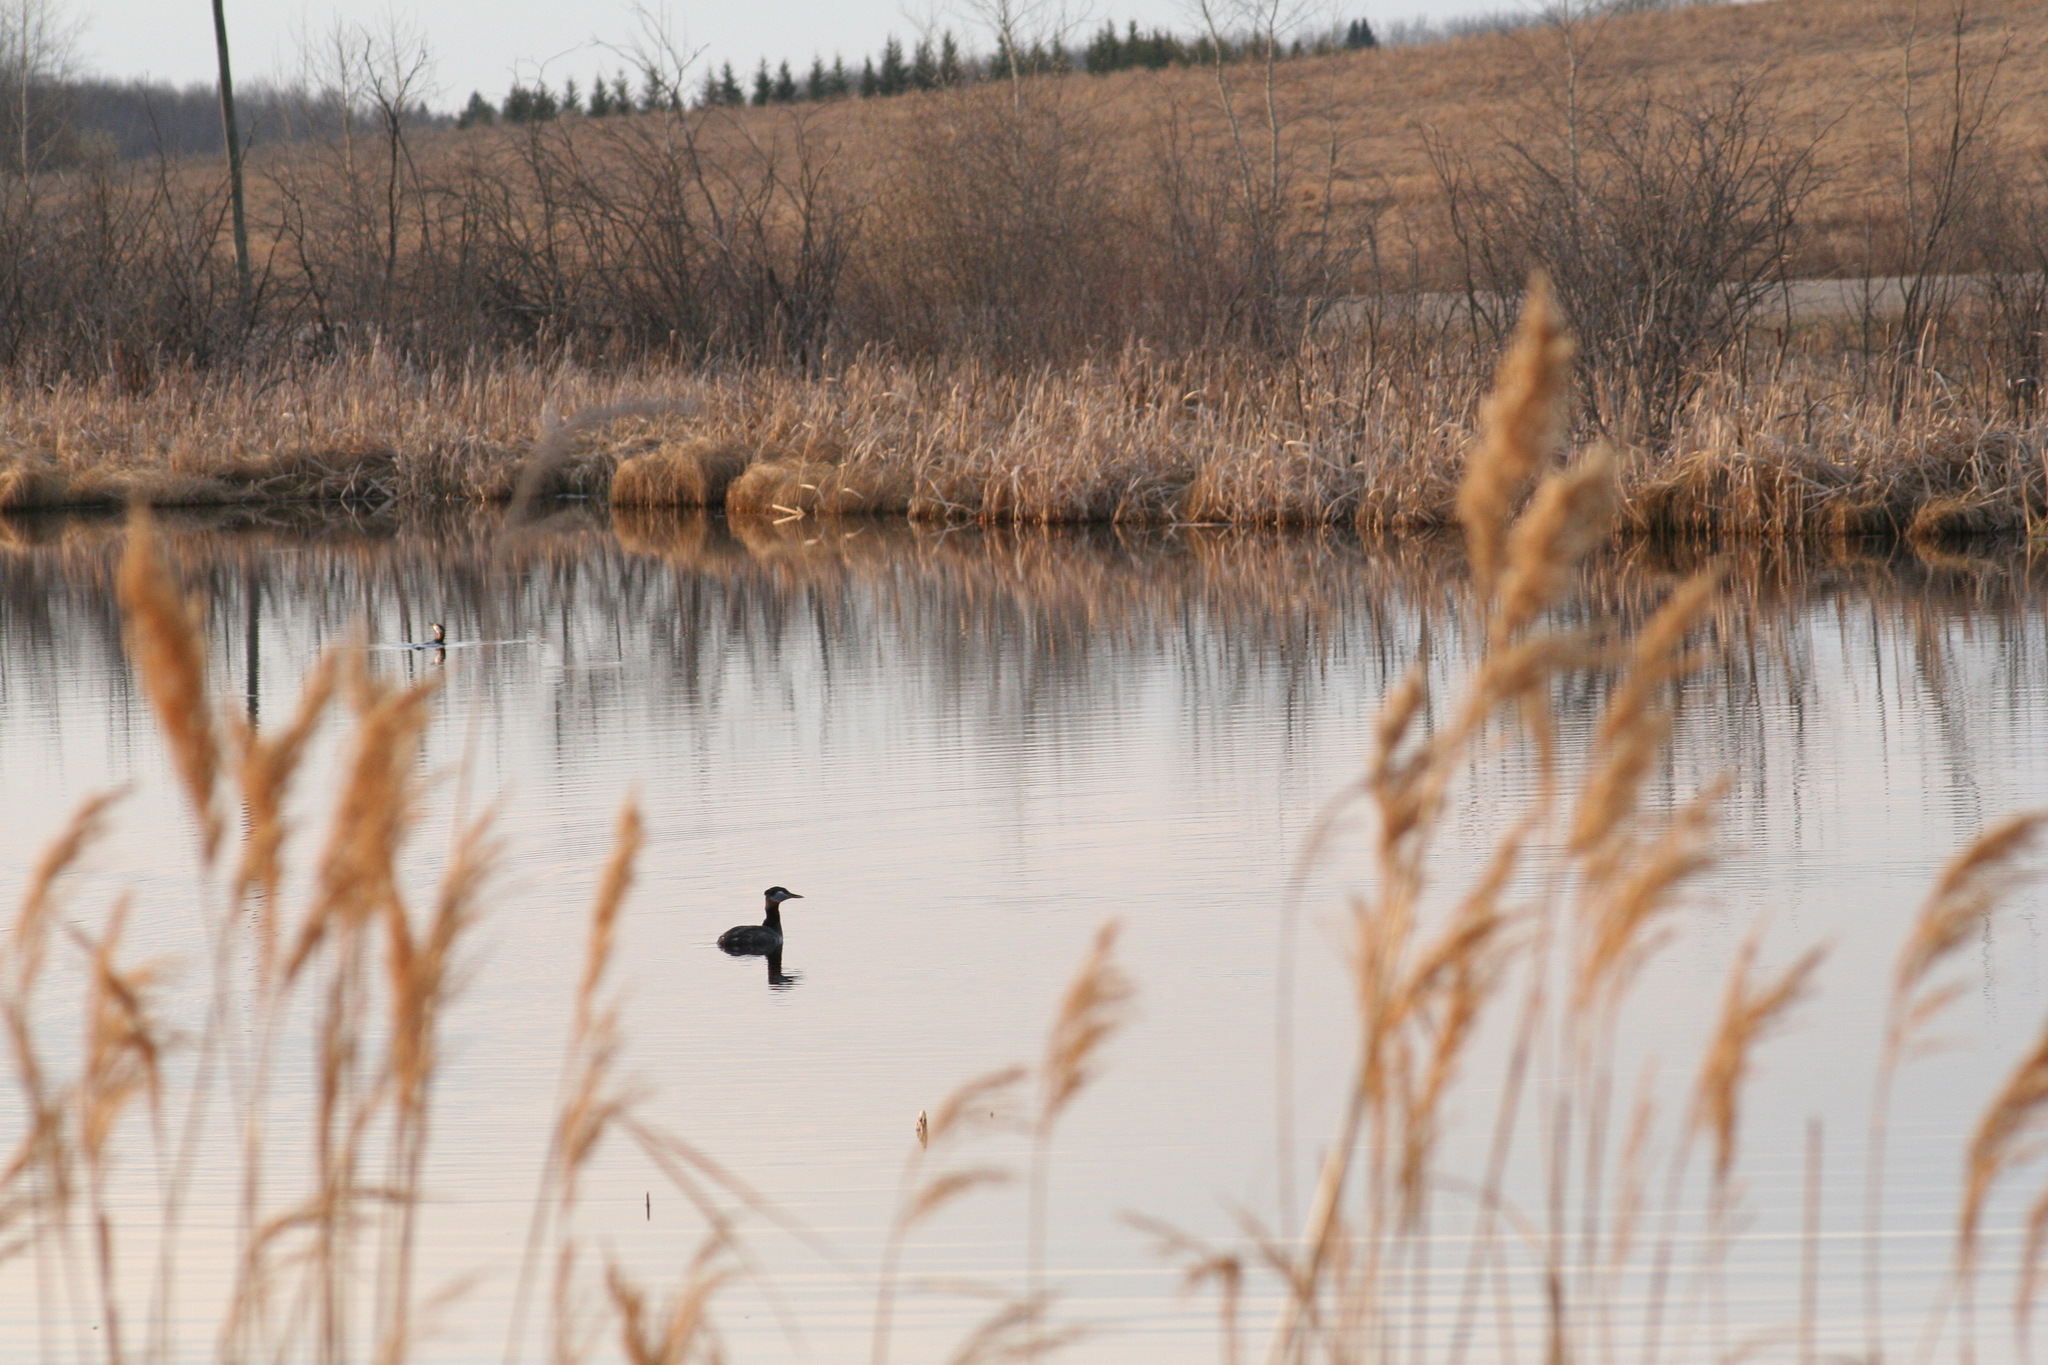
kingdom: Animalia
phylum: Chordata
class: Aves
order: Podicipediformes
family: Podicipedidae
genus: Podiceps
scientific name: Podiceps grisegena
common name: Red-necked grebe
